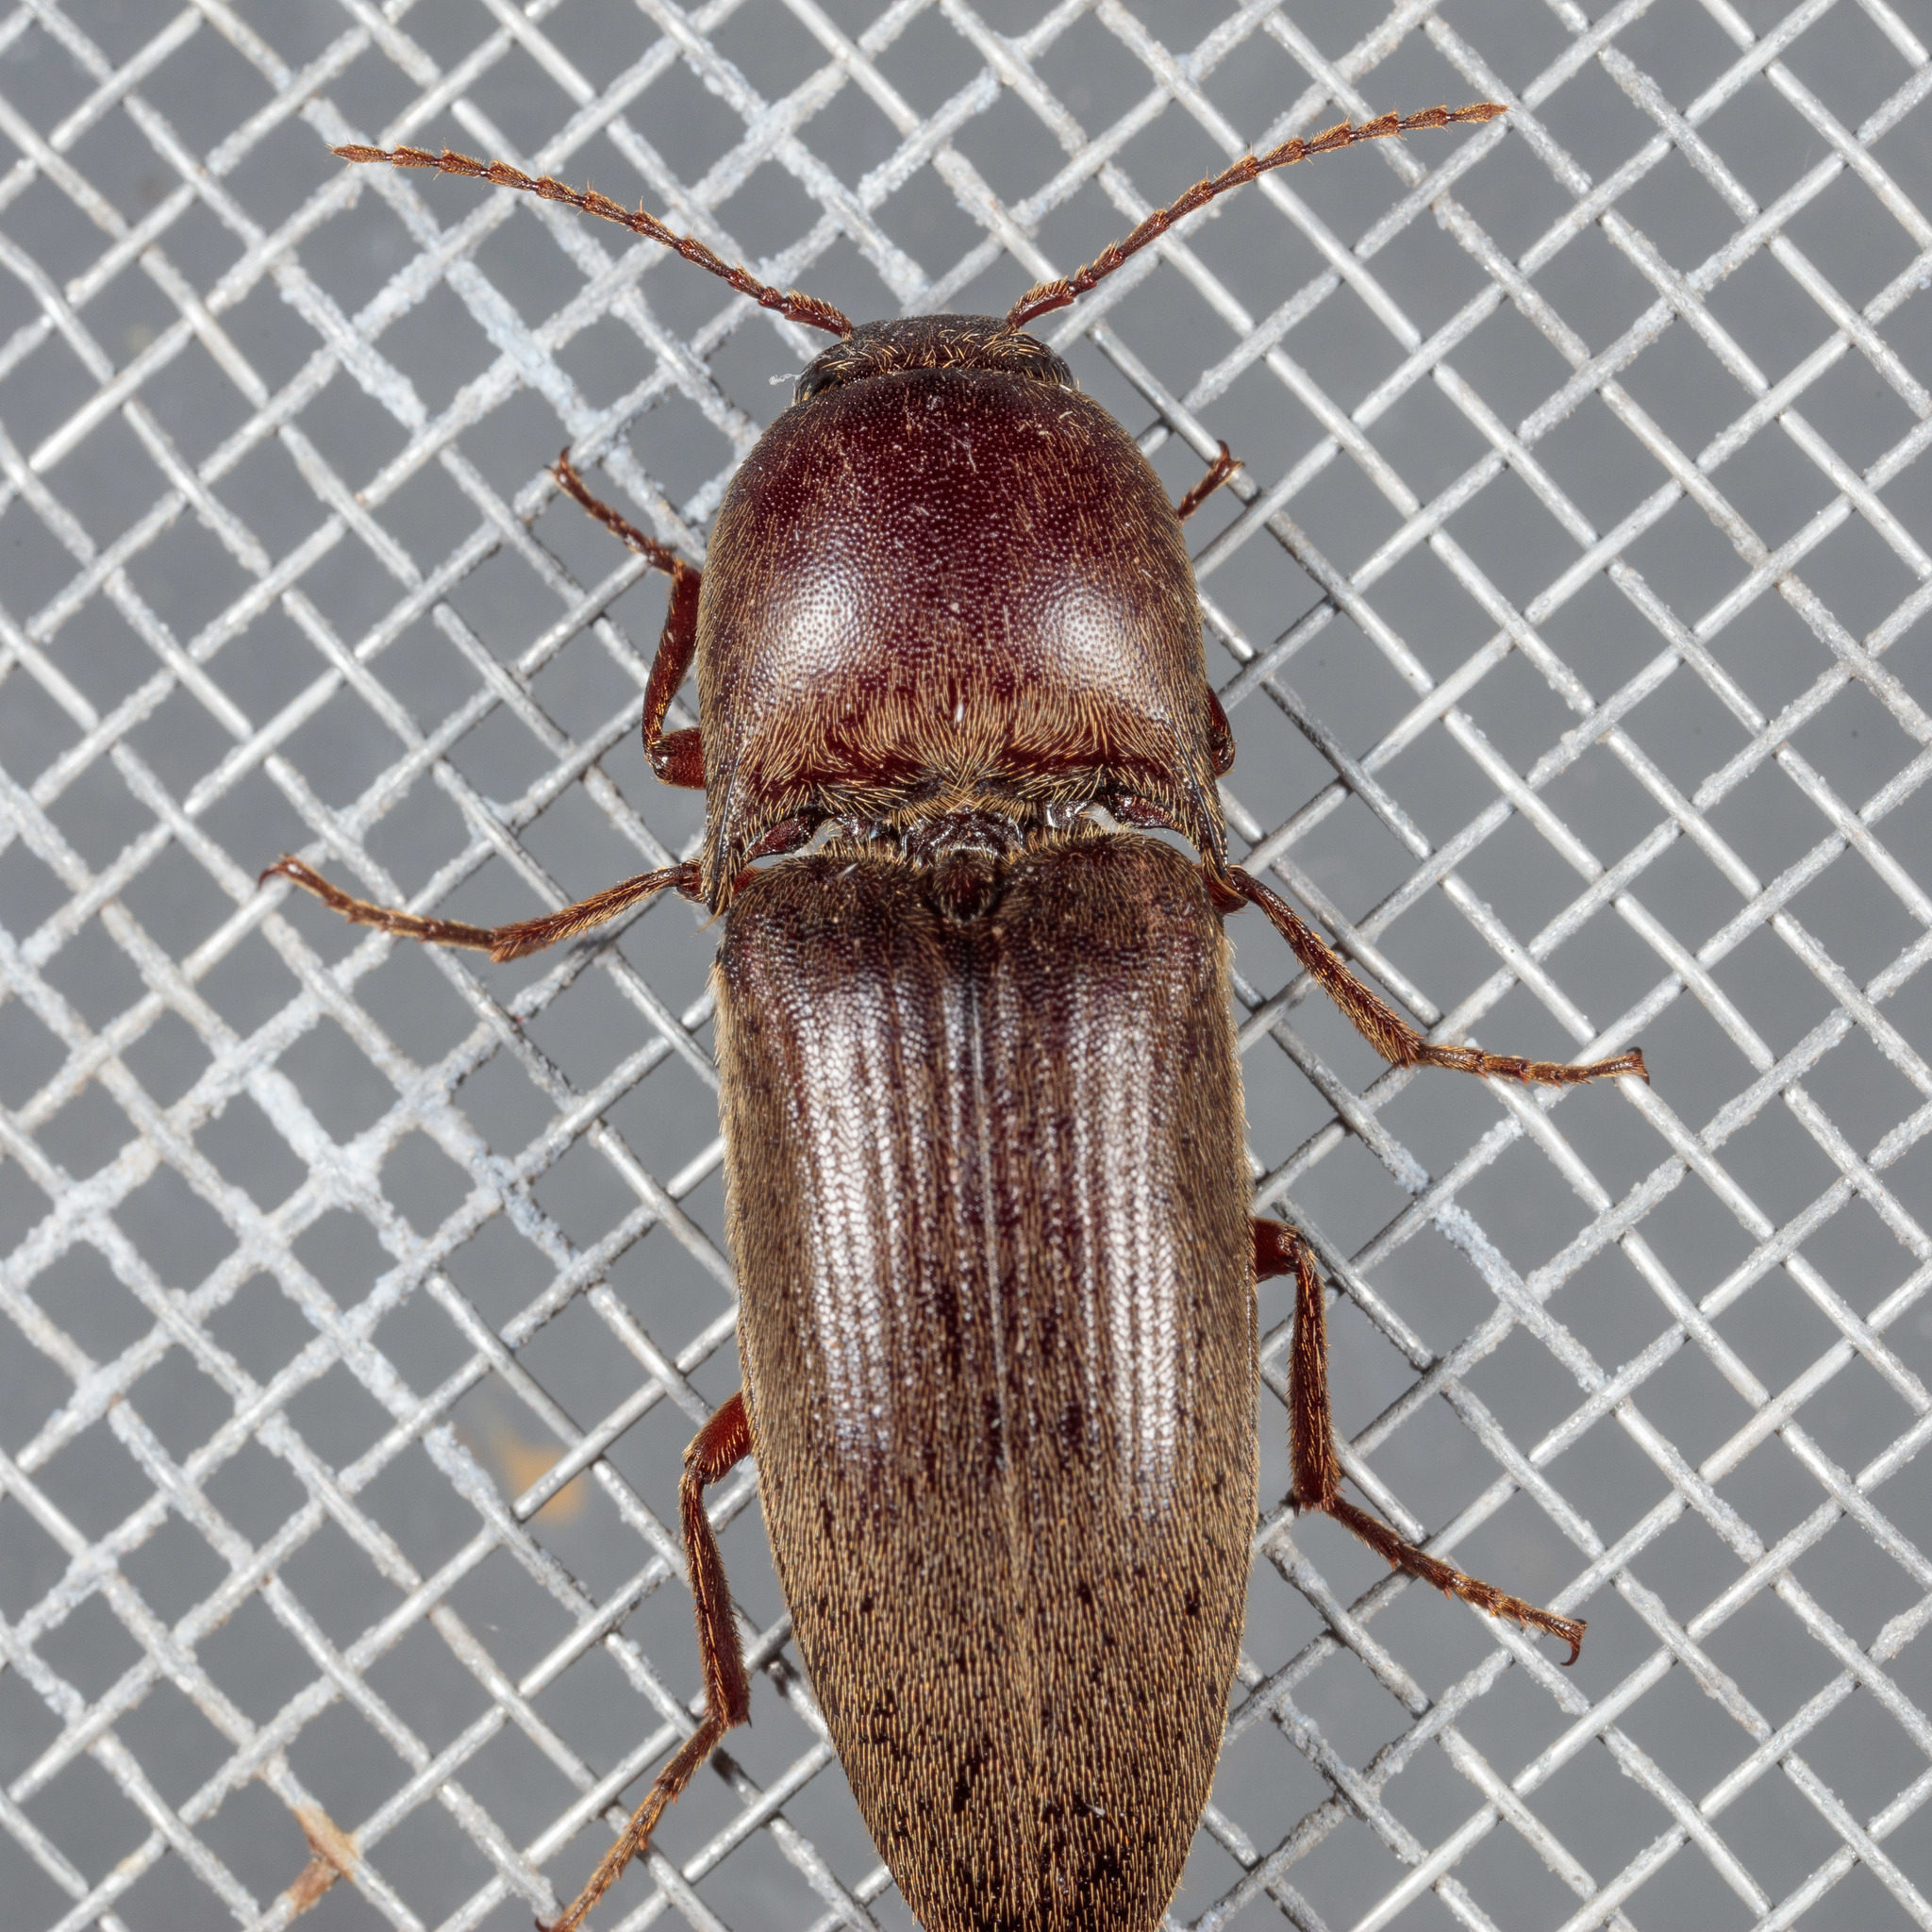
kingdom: Animalia
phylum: Arthropoda
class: Insecta
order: Coleoptera
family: Elateridae
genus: Diplostethus
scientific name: Diplostethus
